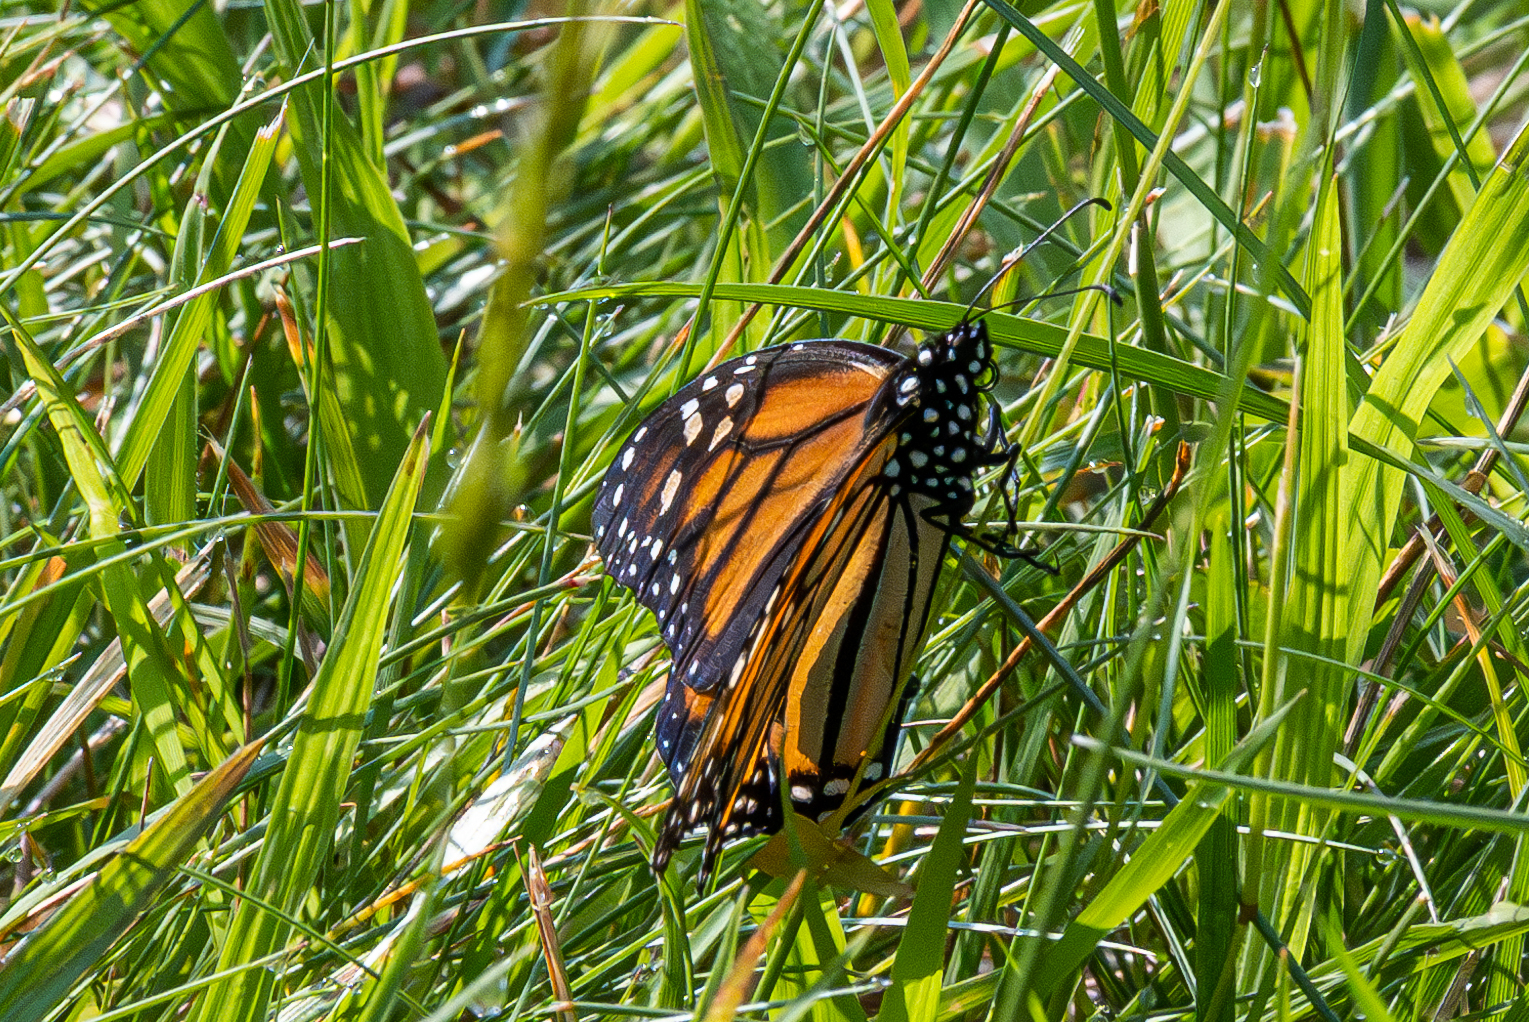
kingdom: Animalia
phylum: Arthropoda
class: Insecta
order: Lepidoptera
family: Nymphalidae
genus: Danaus
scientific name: Danaus plexippus
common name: Monarch
